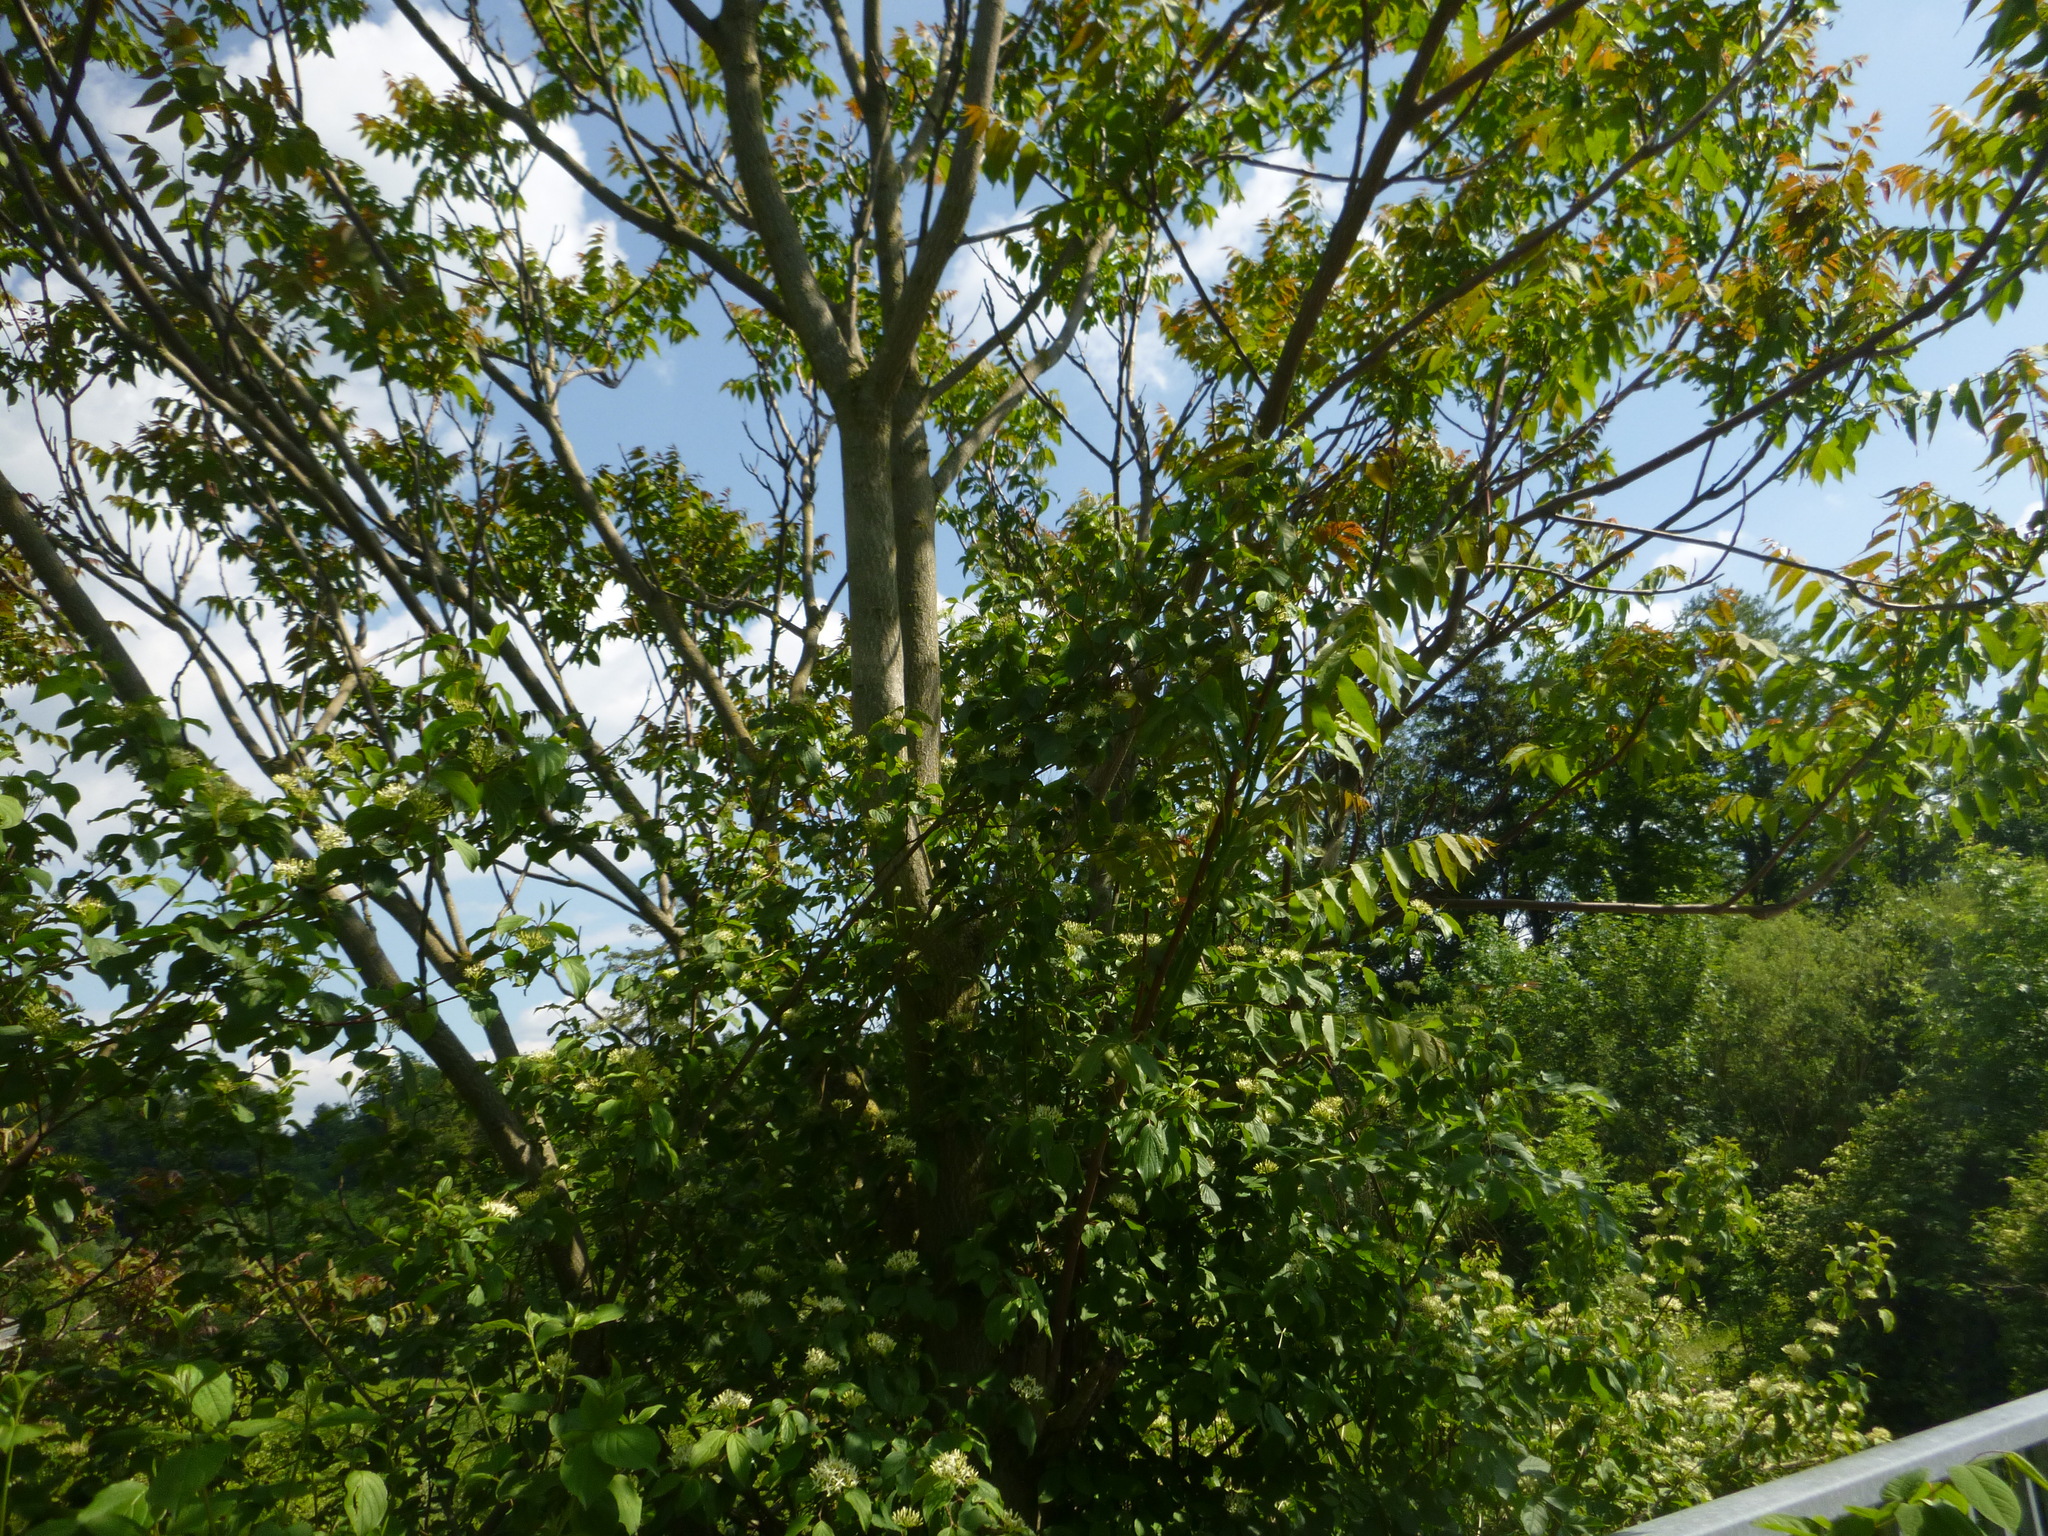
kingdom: Plantae
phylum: Tracheophyta
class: Magnoliopsida
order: Sapindales
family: Simaroubaceae
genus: Ailanthus
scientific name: Ailanthus altissima
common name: Tree-of-heaven
